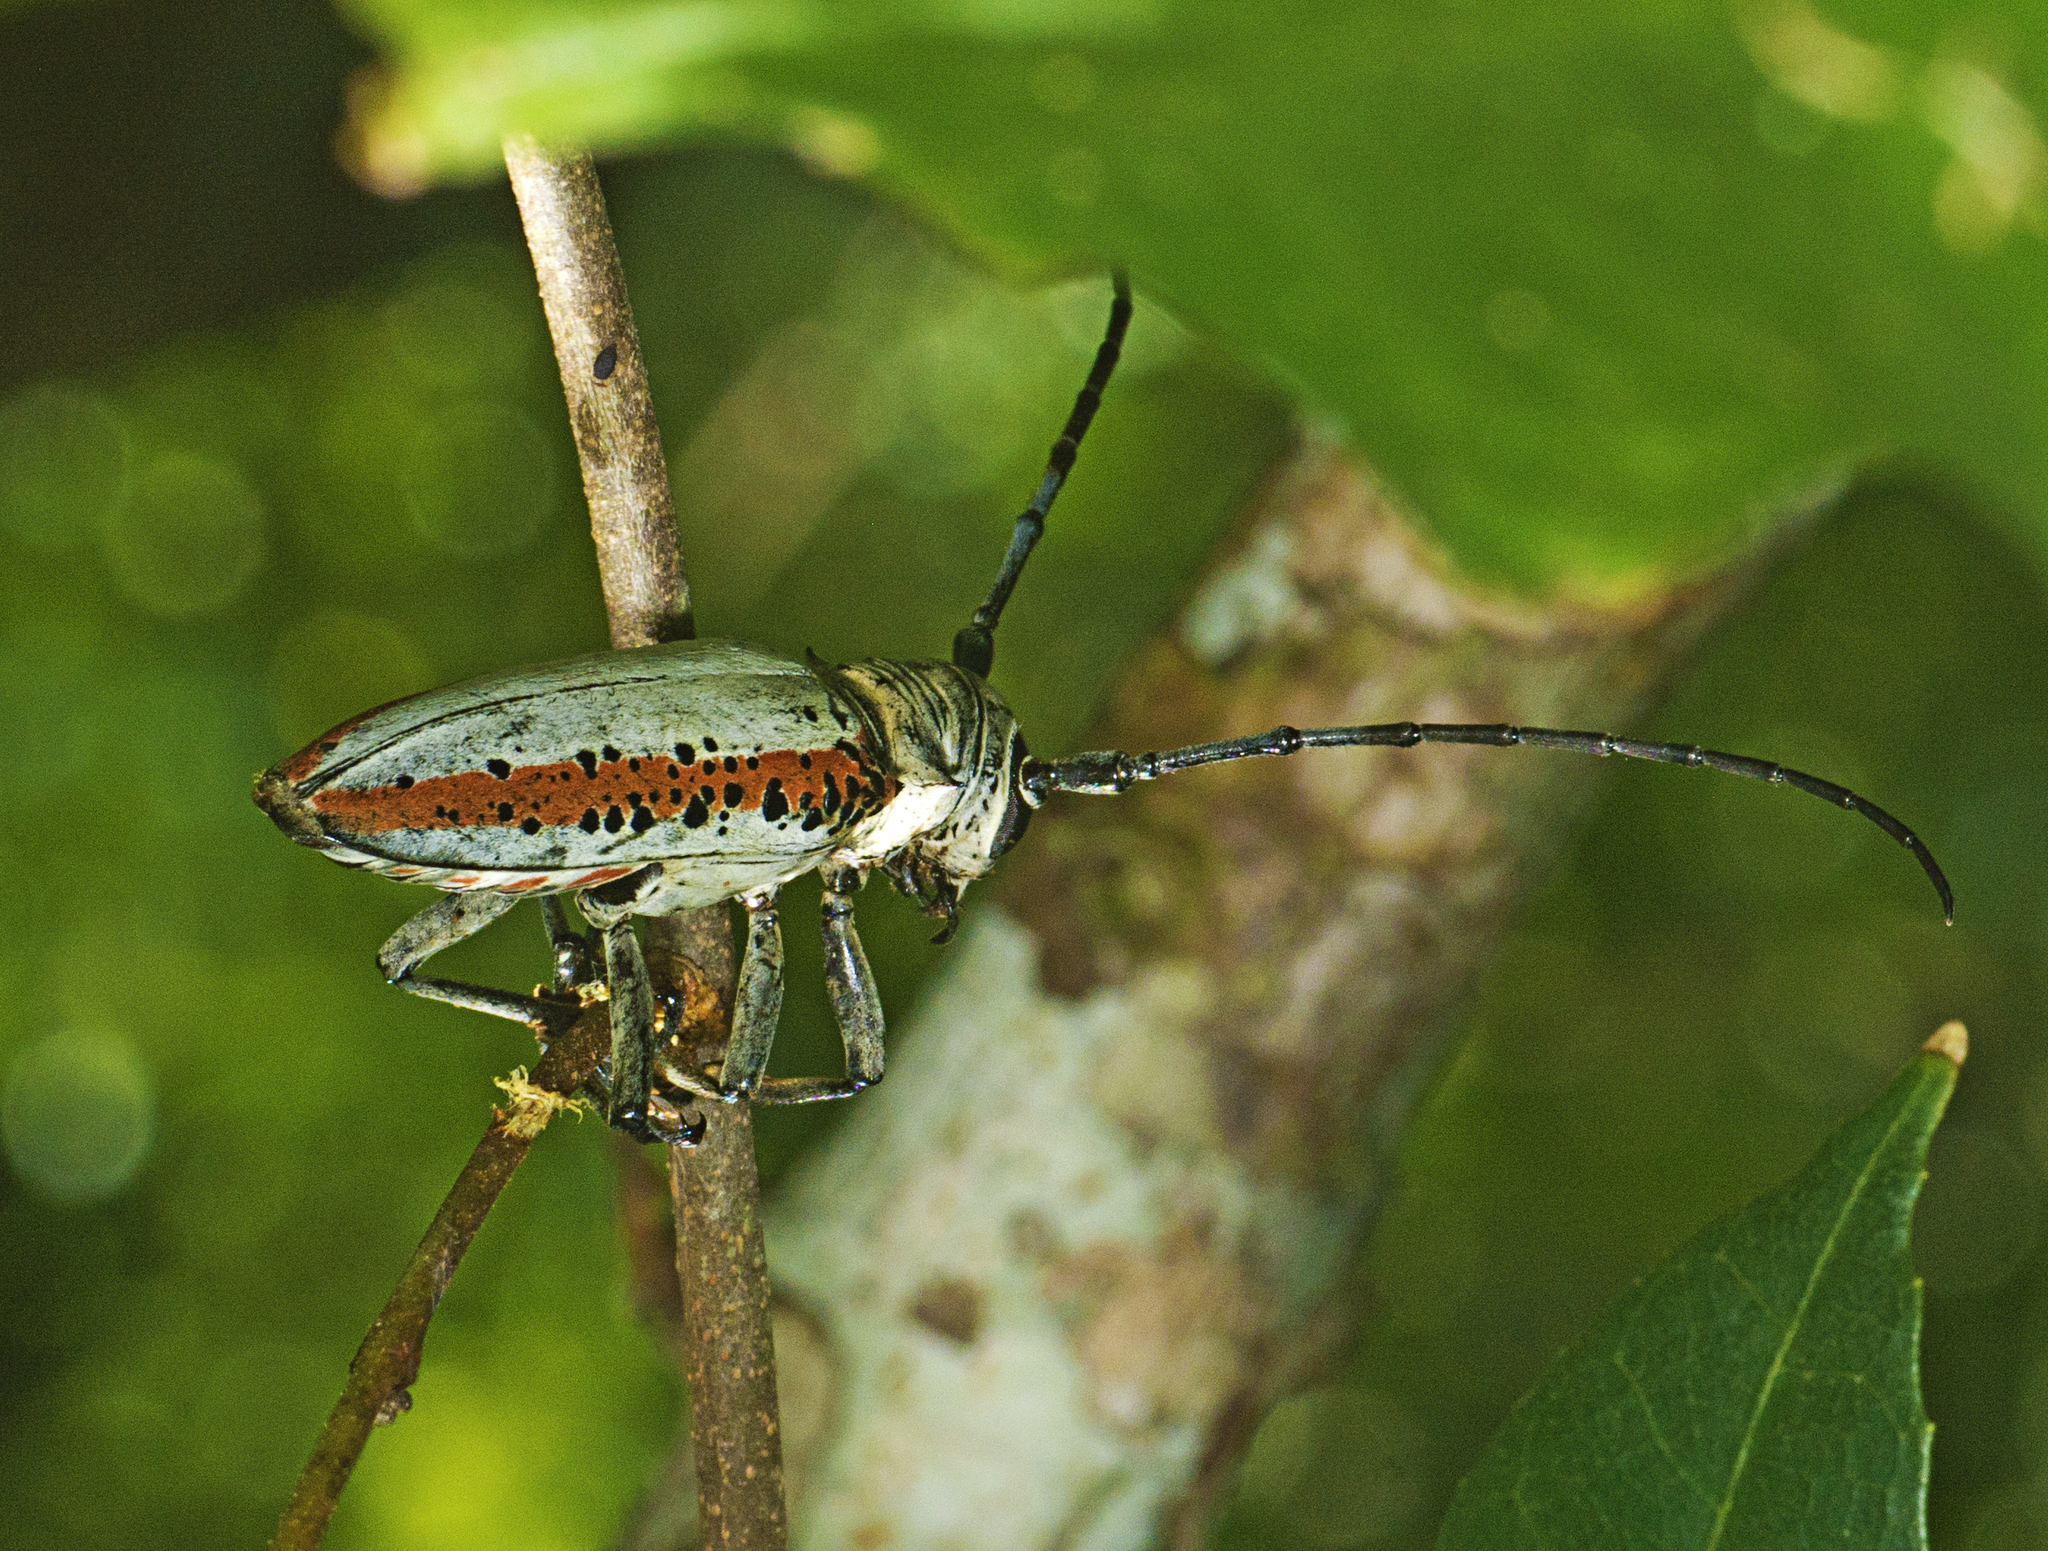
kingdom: Animalia
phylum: Arthropoda
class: Insecta
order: Coleoptera
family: Cerambycidae
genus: Rosenbergia
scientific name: Rosenbergia drouini
